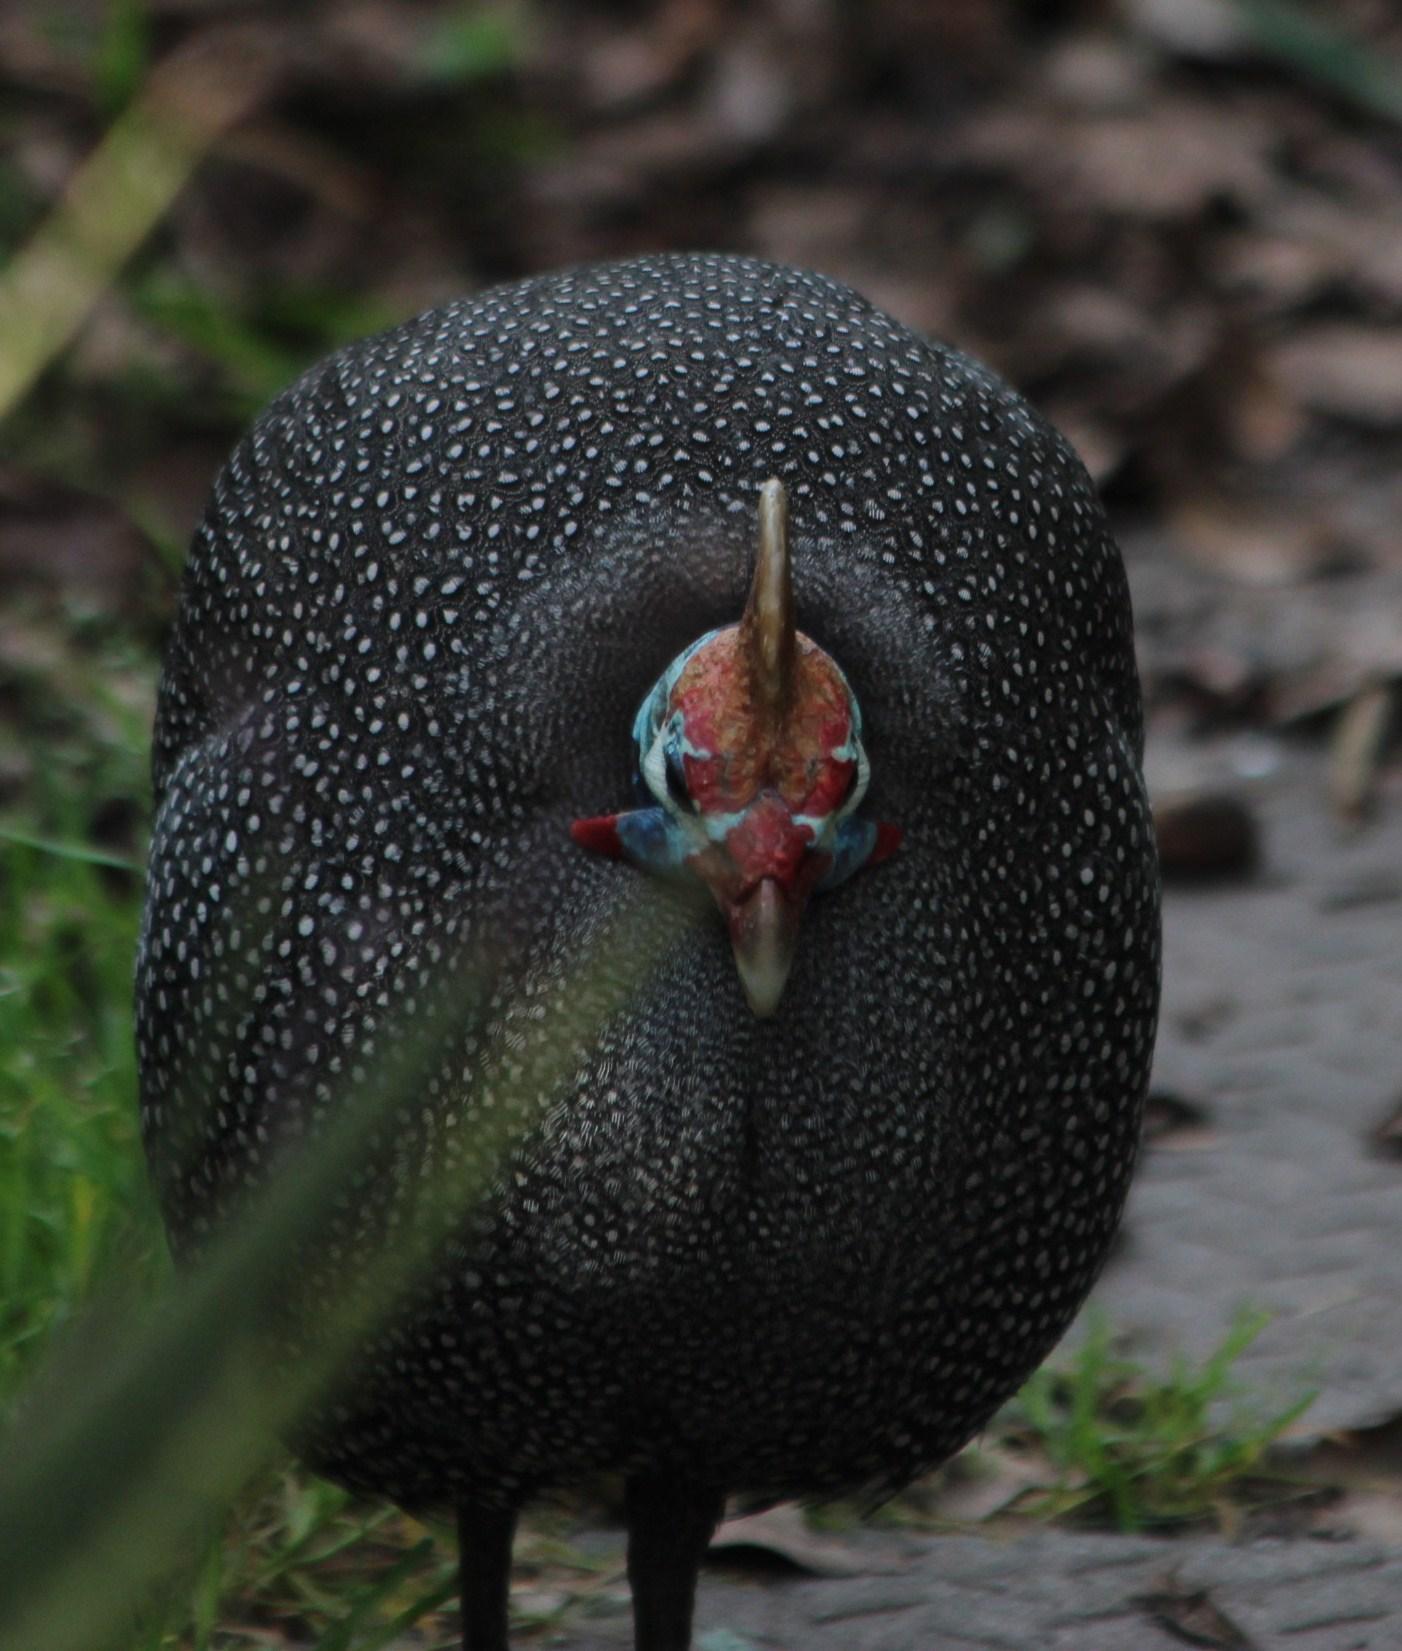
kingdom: Animalia
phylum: Chordata
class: Aves
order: Galliformes
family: Numididae
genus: Numida
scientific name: Numida meleagris
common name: Helmeted guineafowl
